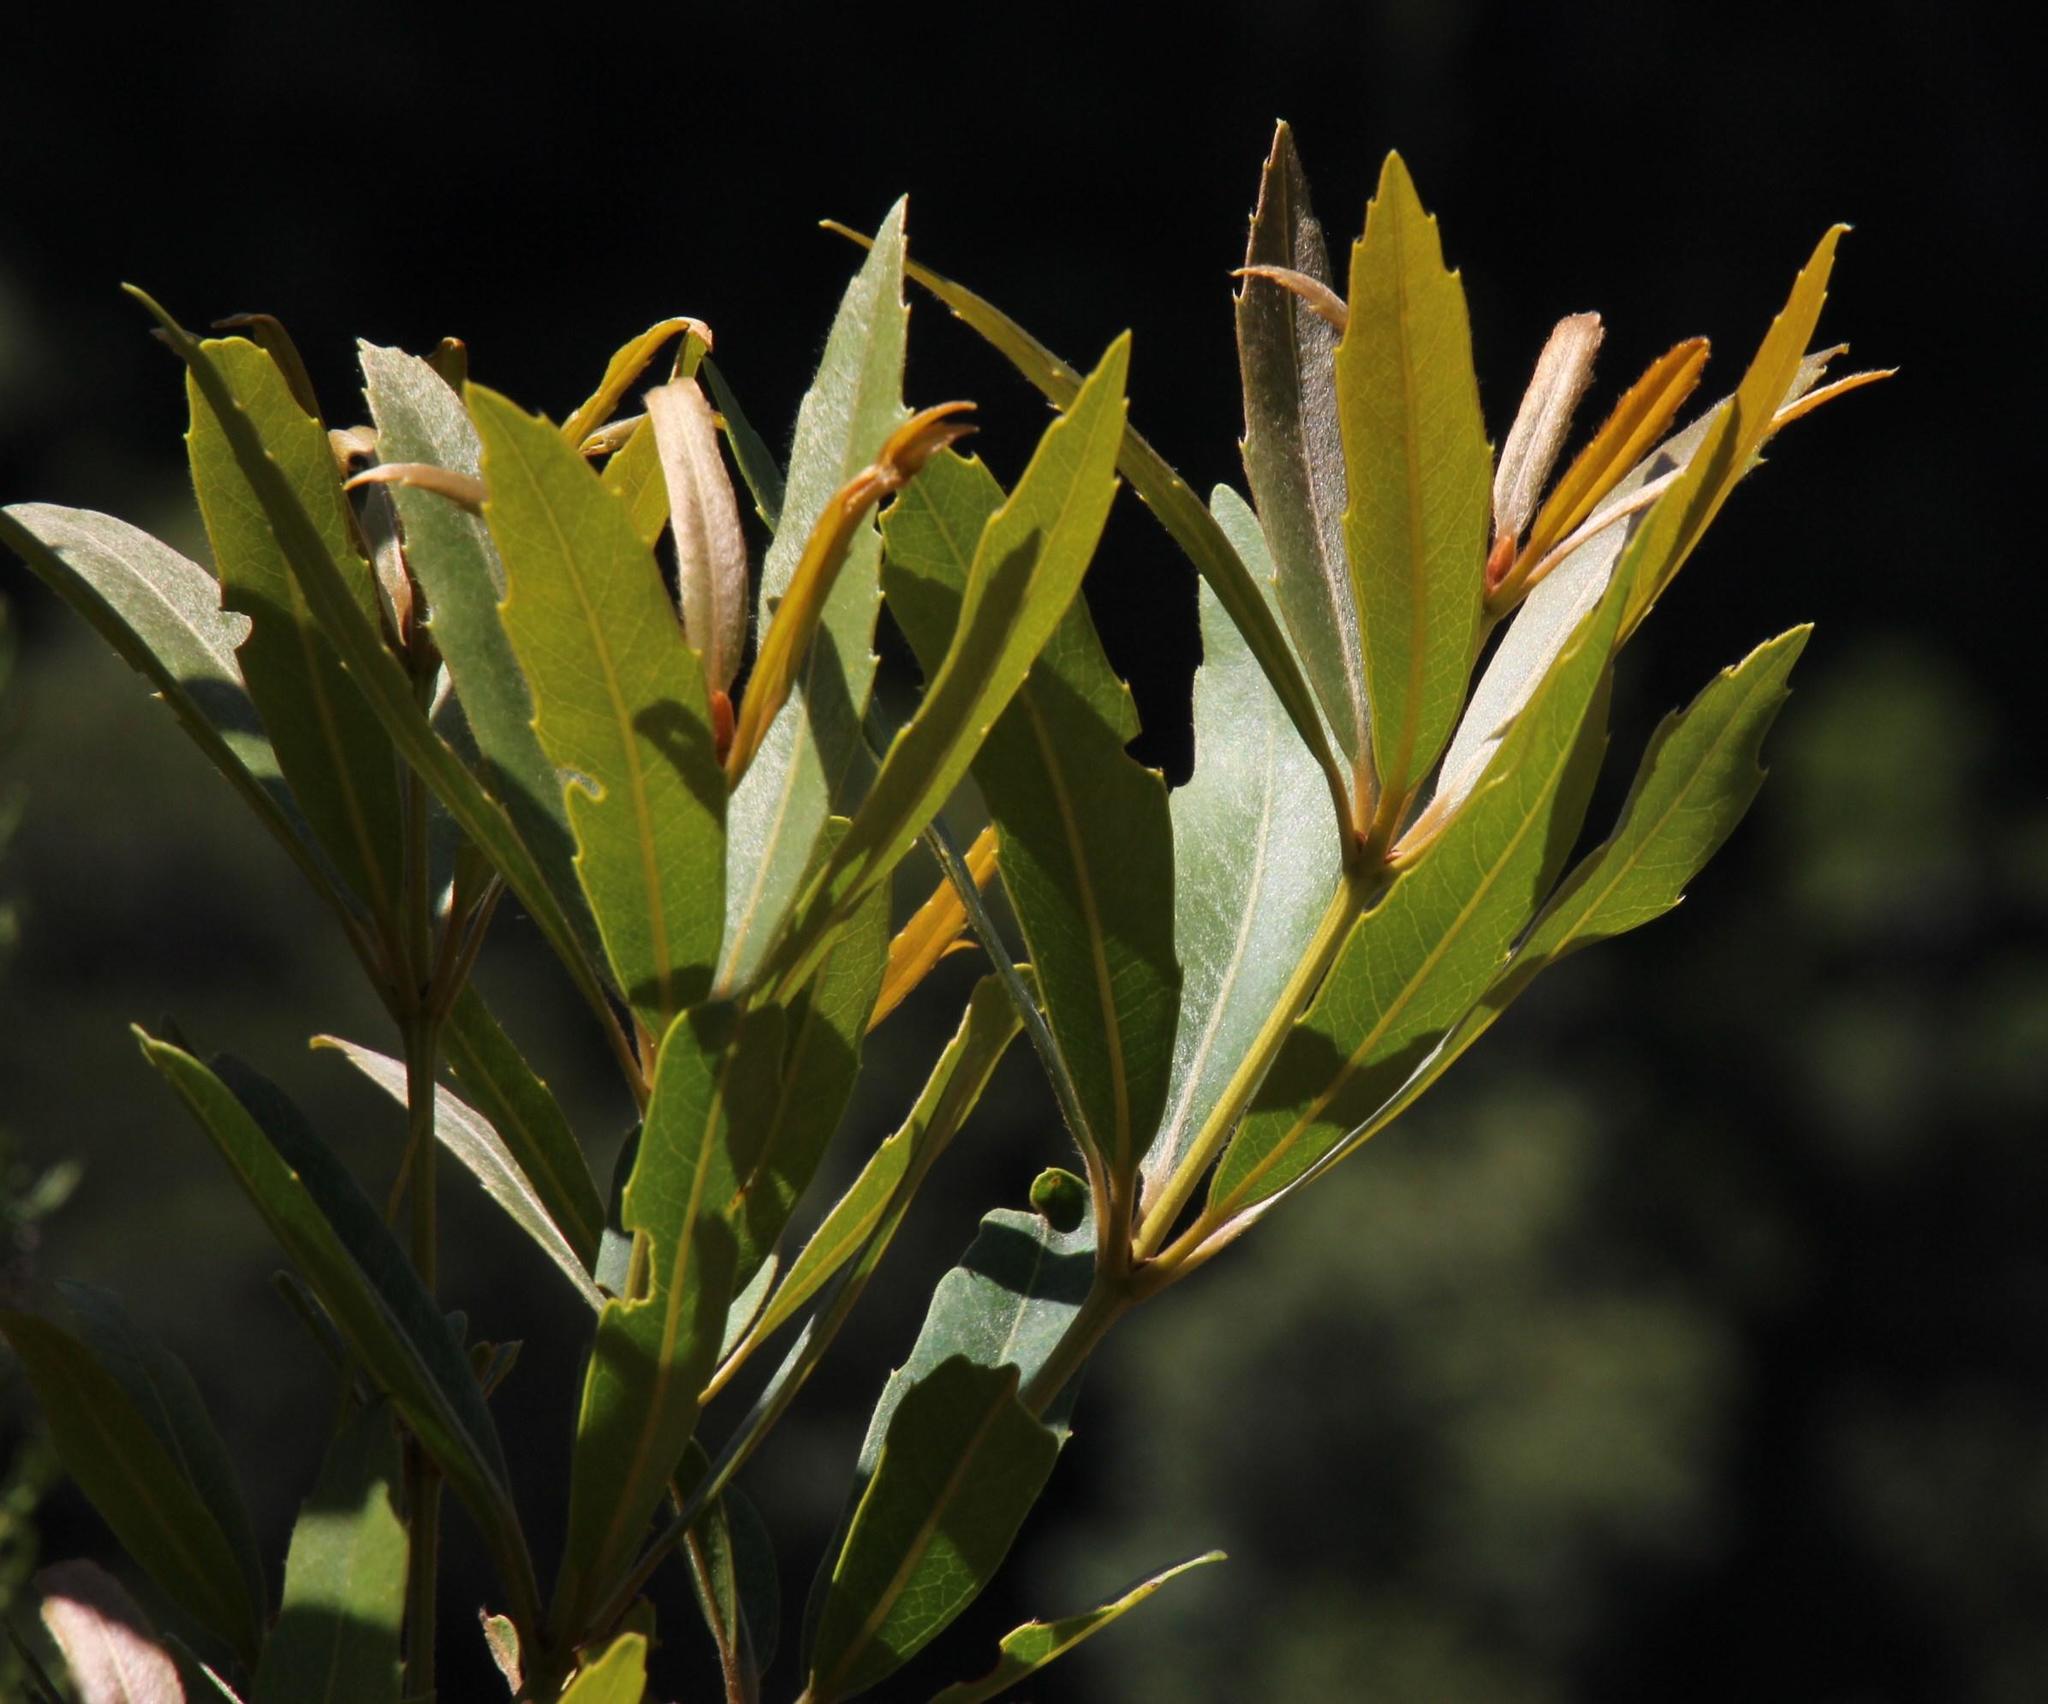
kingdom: Plantae
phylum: Tracheophyta
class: Magnoliopsida
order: Proteales
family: Proteaceae
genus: Brabejum
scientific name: Brabejum stellatifolium
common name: Wild almond
